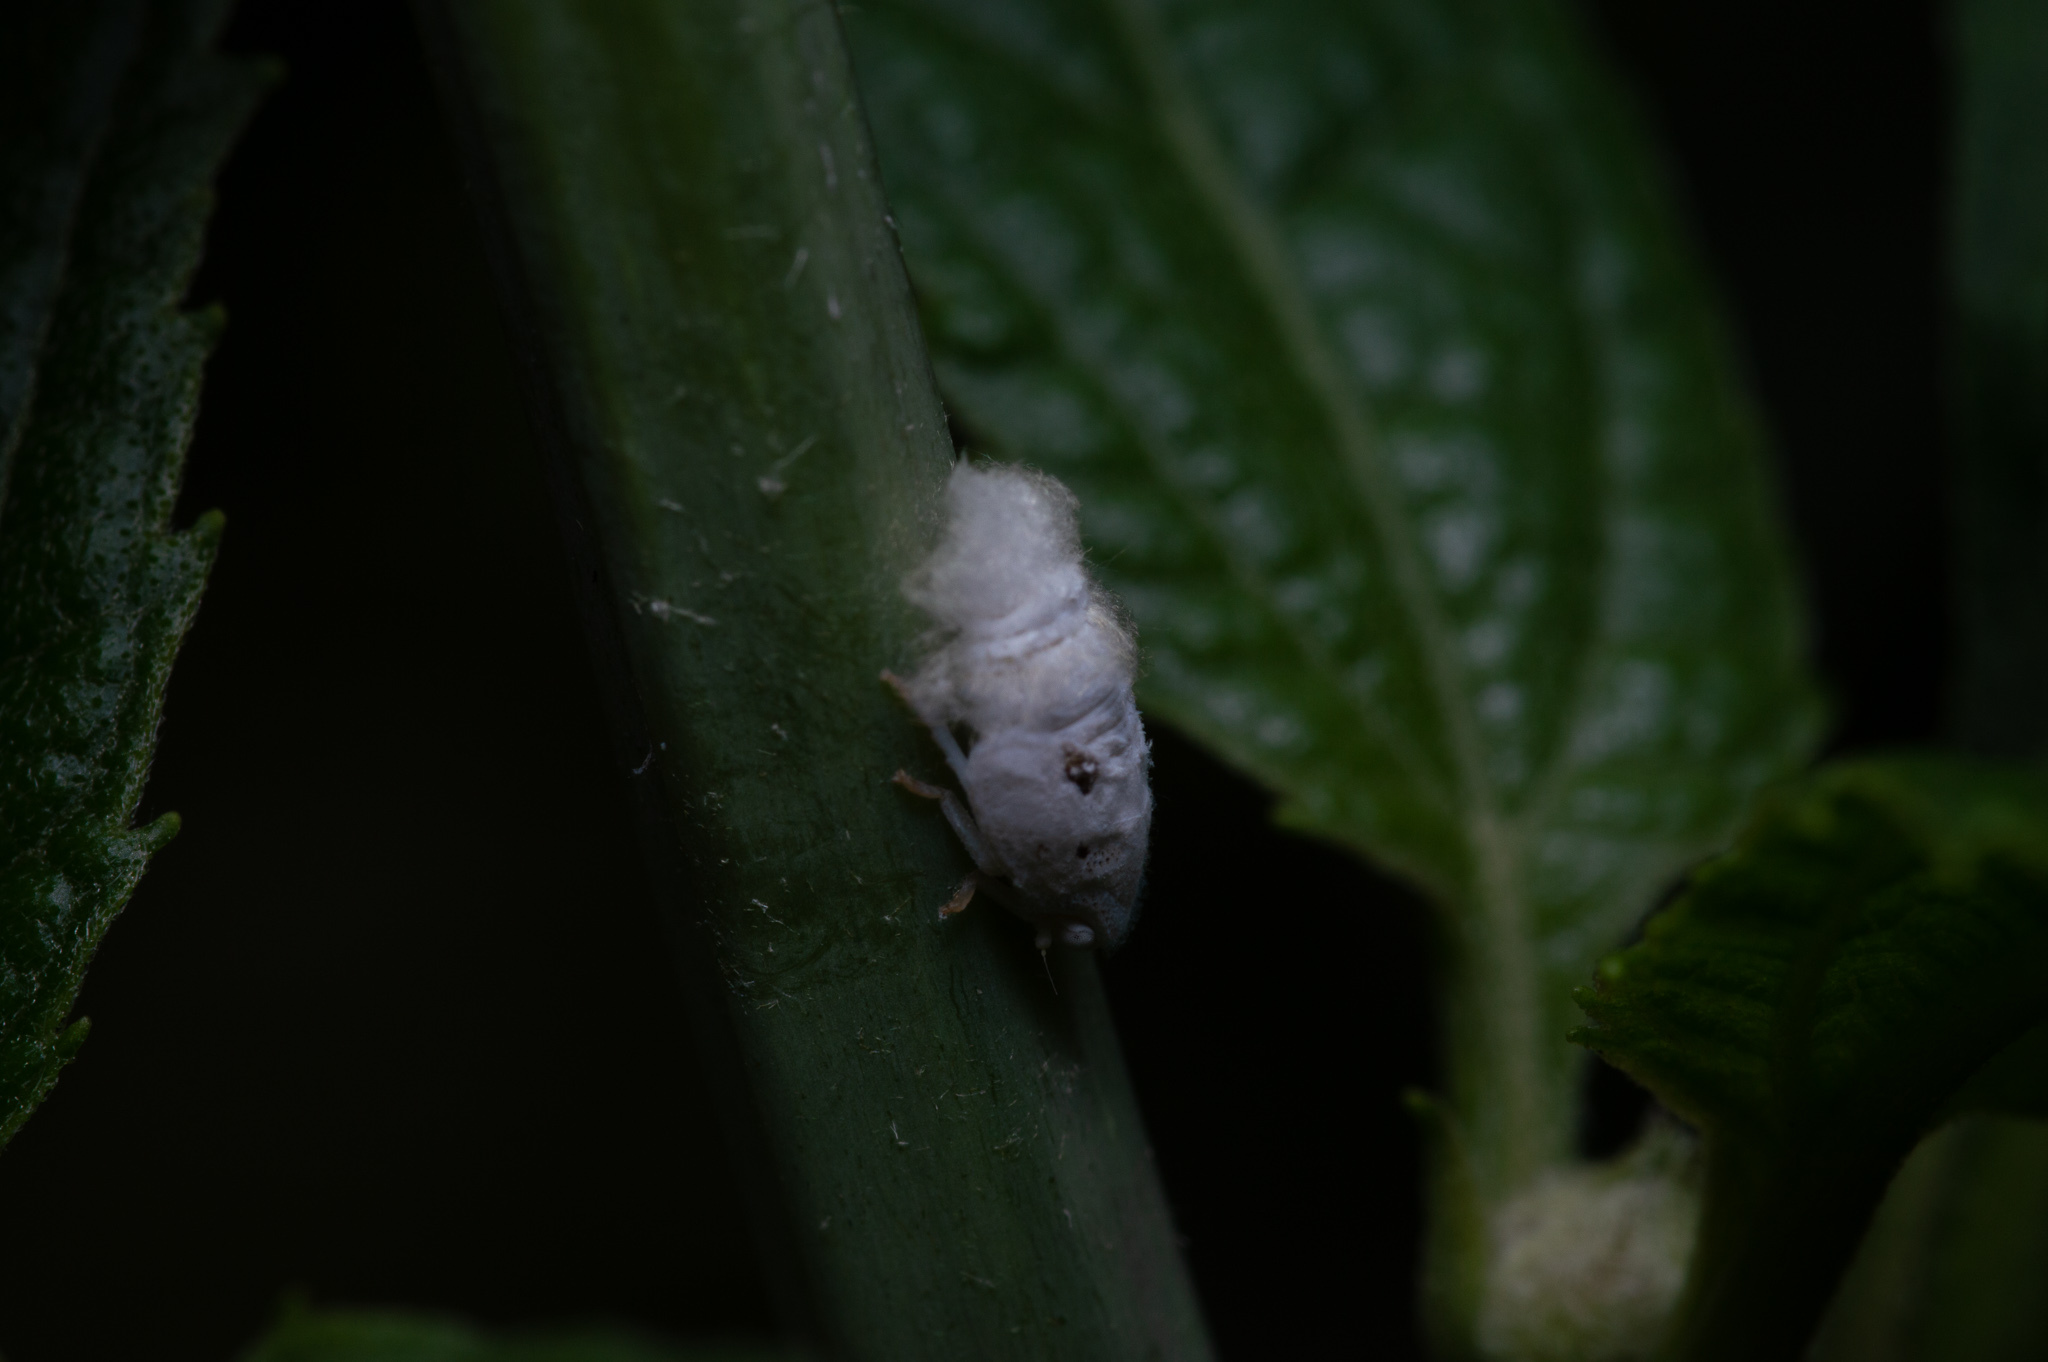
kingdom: Animalia
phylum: Arthropoda
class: Insecta
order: Hemiptera
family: Flatidae
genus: Metcalfa
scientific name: Metcalfa pruinosa
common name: Citrus flatid planthopper
